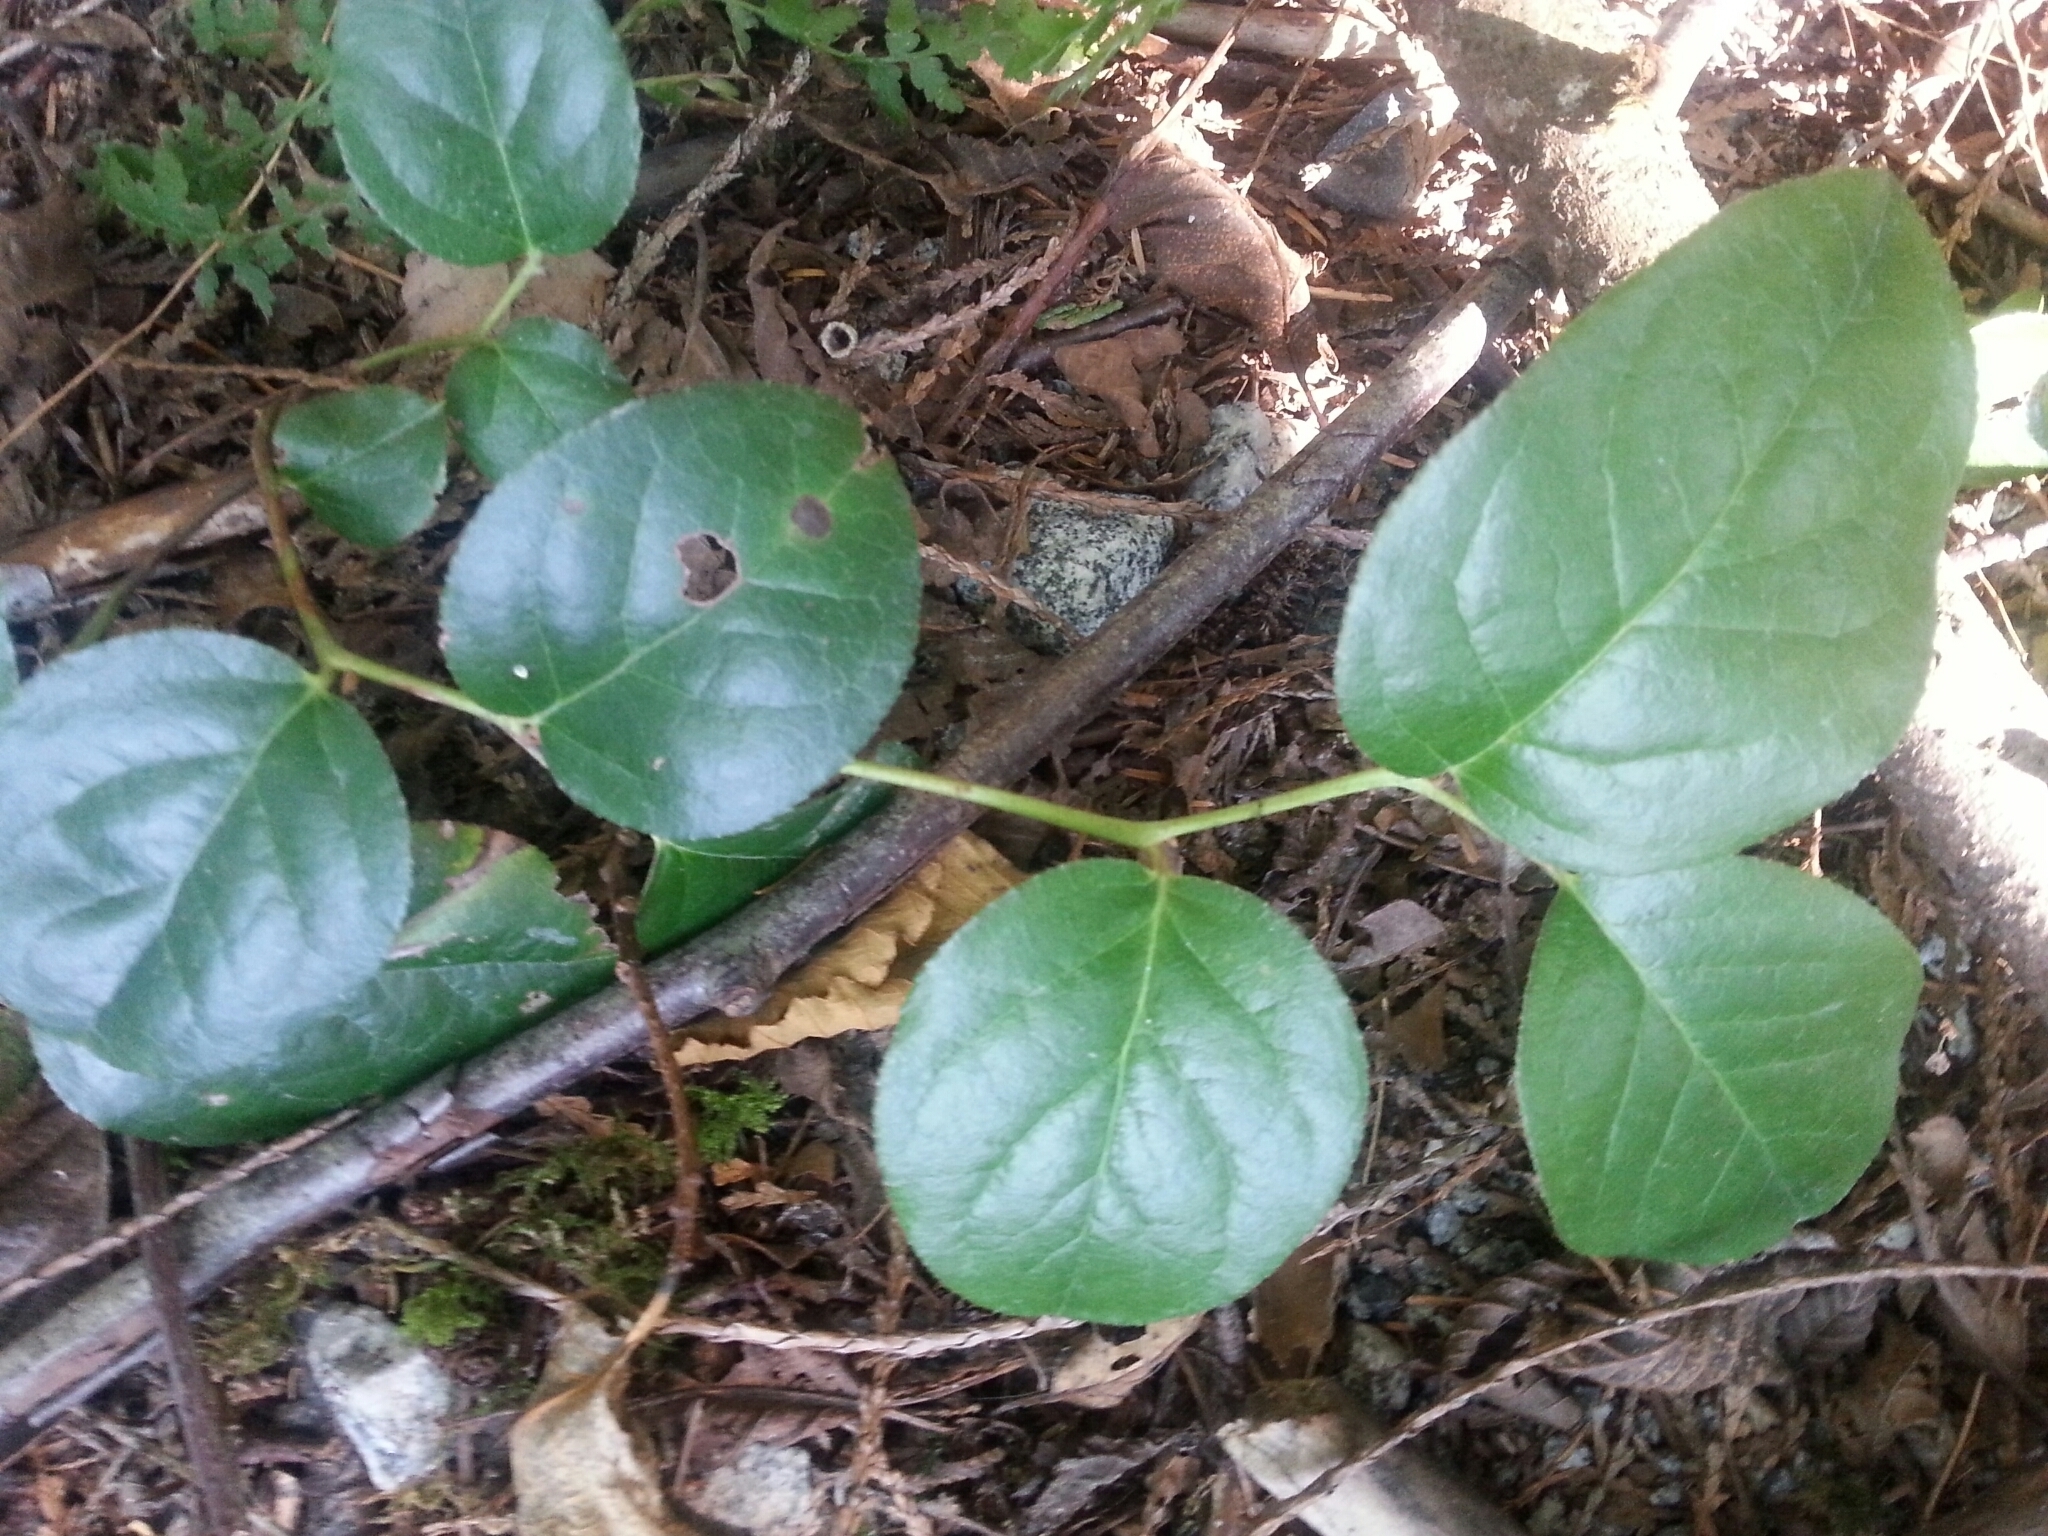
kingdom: Plantae
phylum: Tracheophyta
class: Magnoliopsida
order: Ericales
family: Ericaceae
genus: Gaultheria
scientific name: Gaultheria shallon
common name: Shallon
